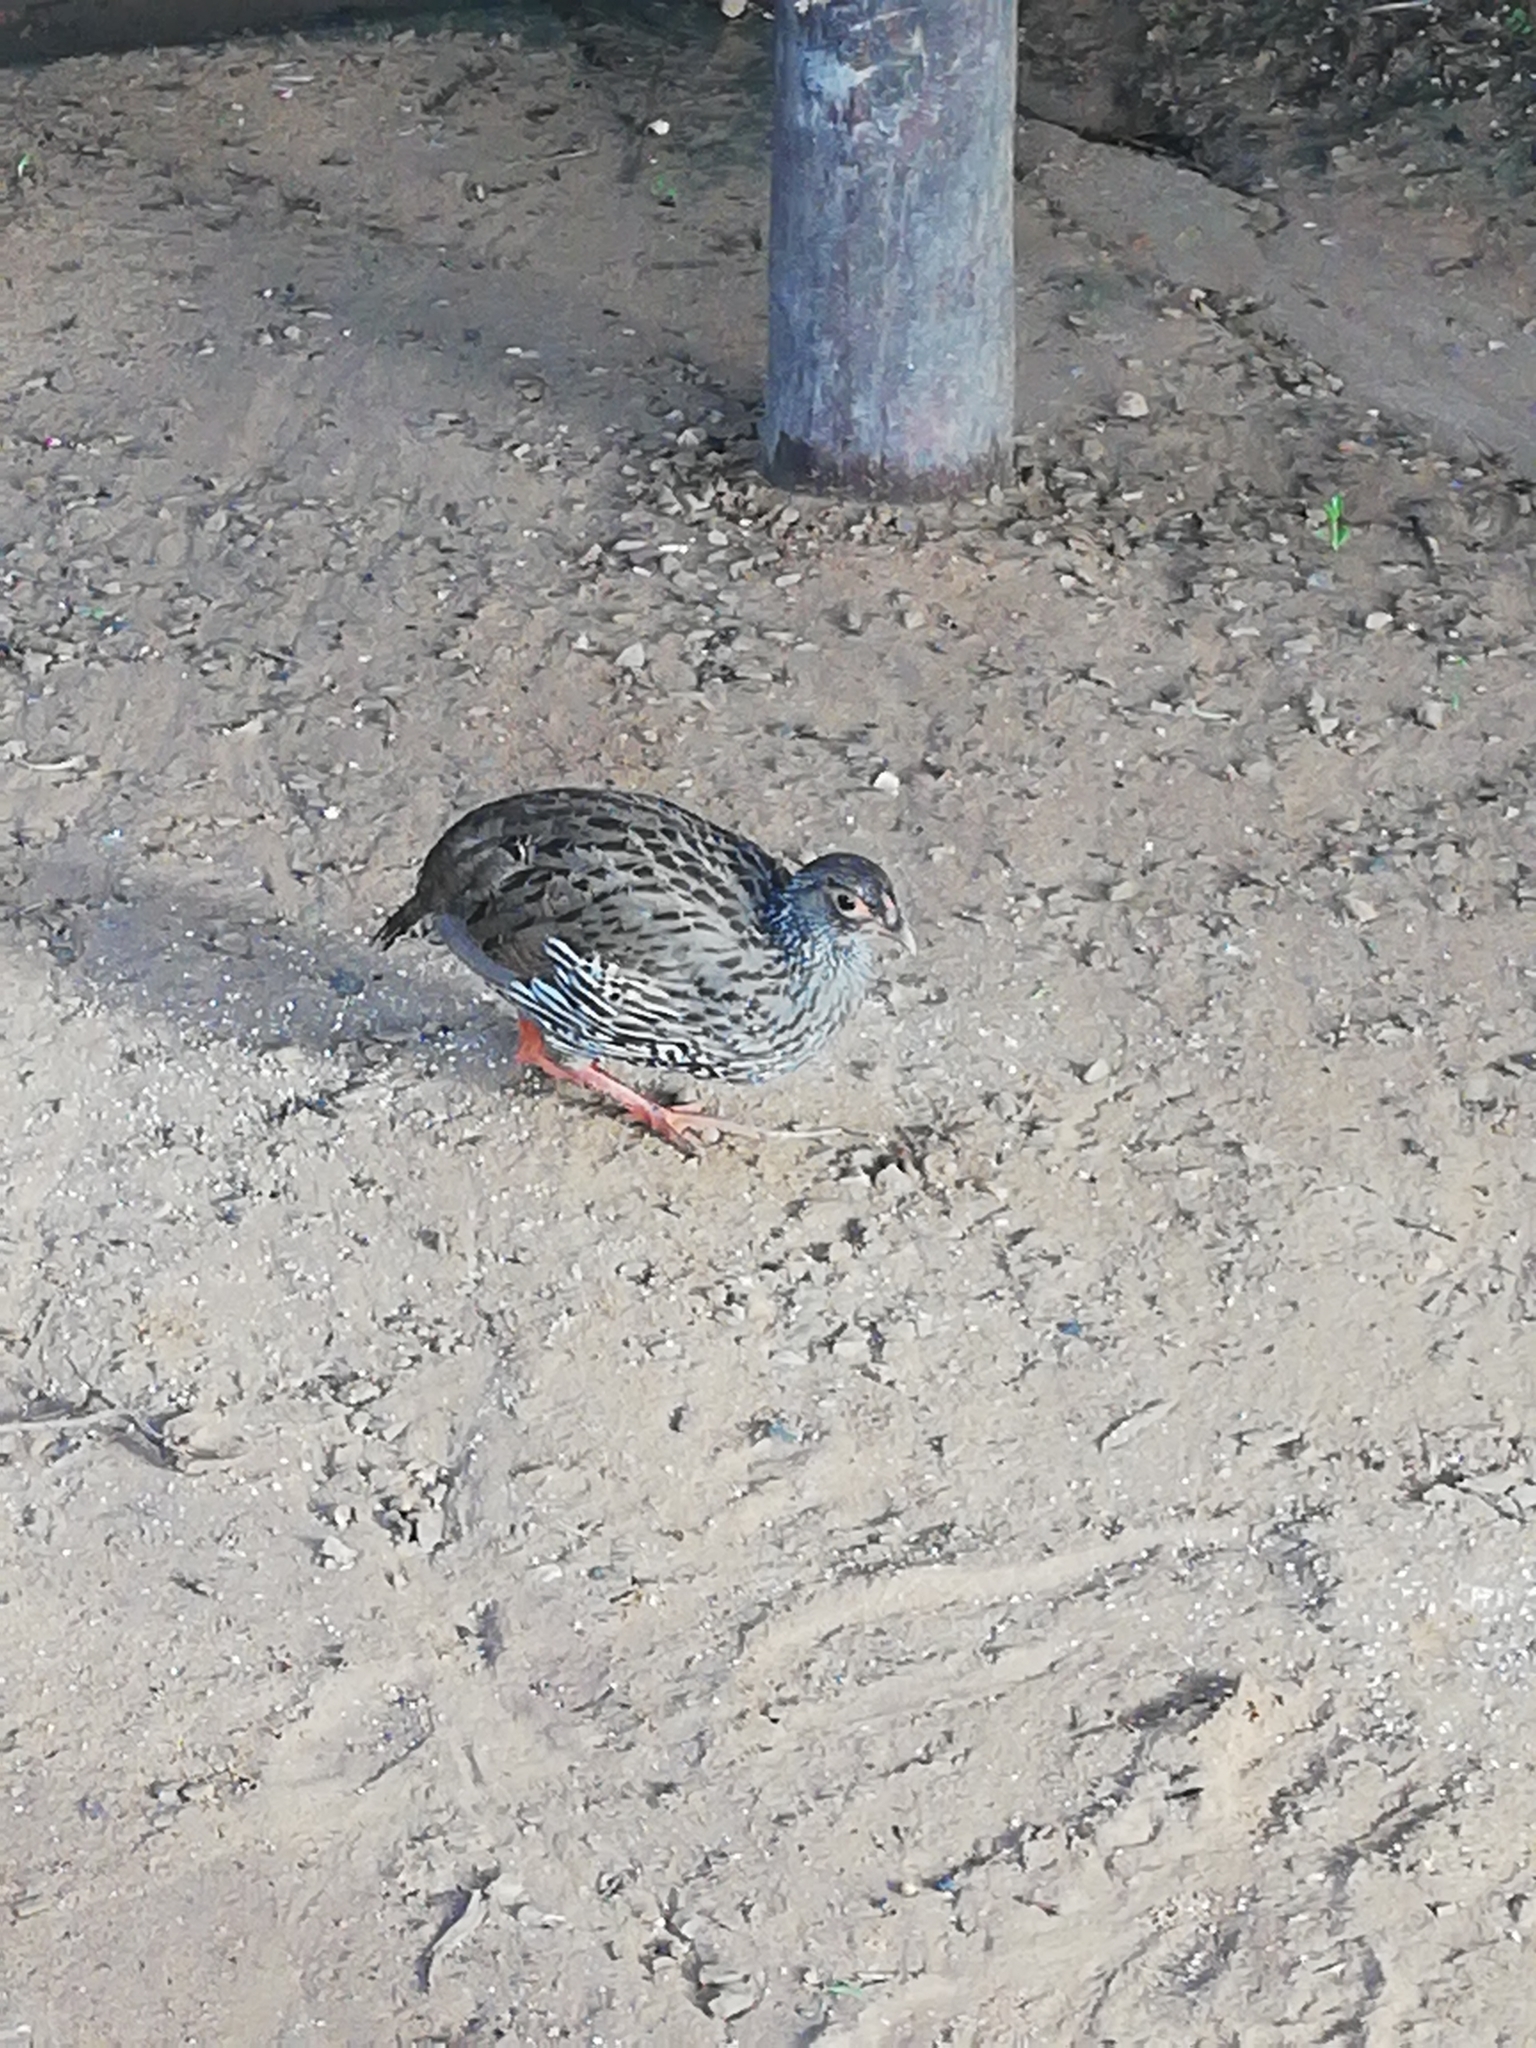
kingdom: Animalia
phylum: Chordata
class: Aves
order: Galliformes
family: Phasianidae
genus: Pternistis
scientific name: Pternistis afer
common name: Red-necked spurfowl
